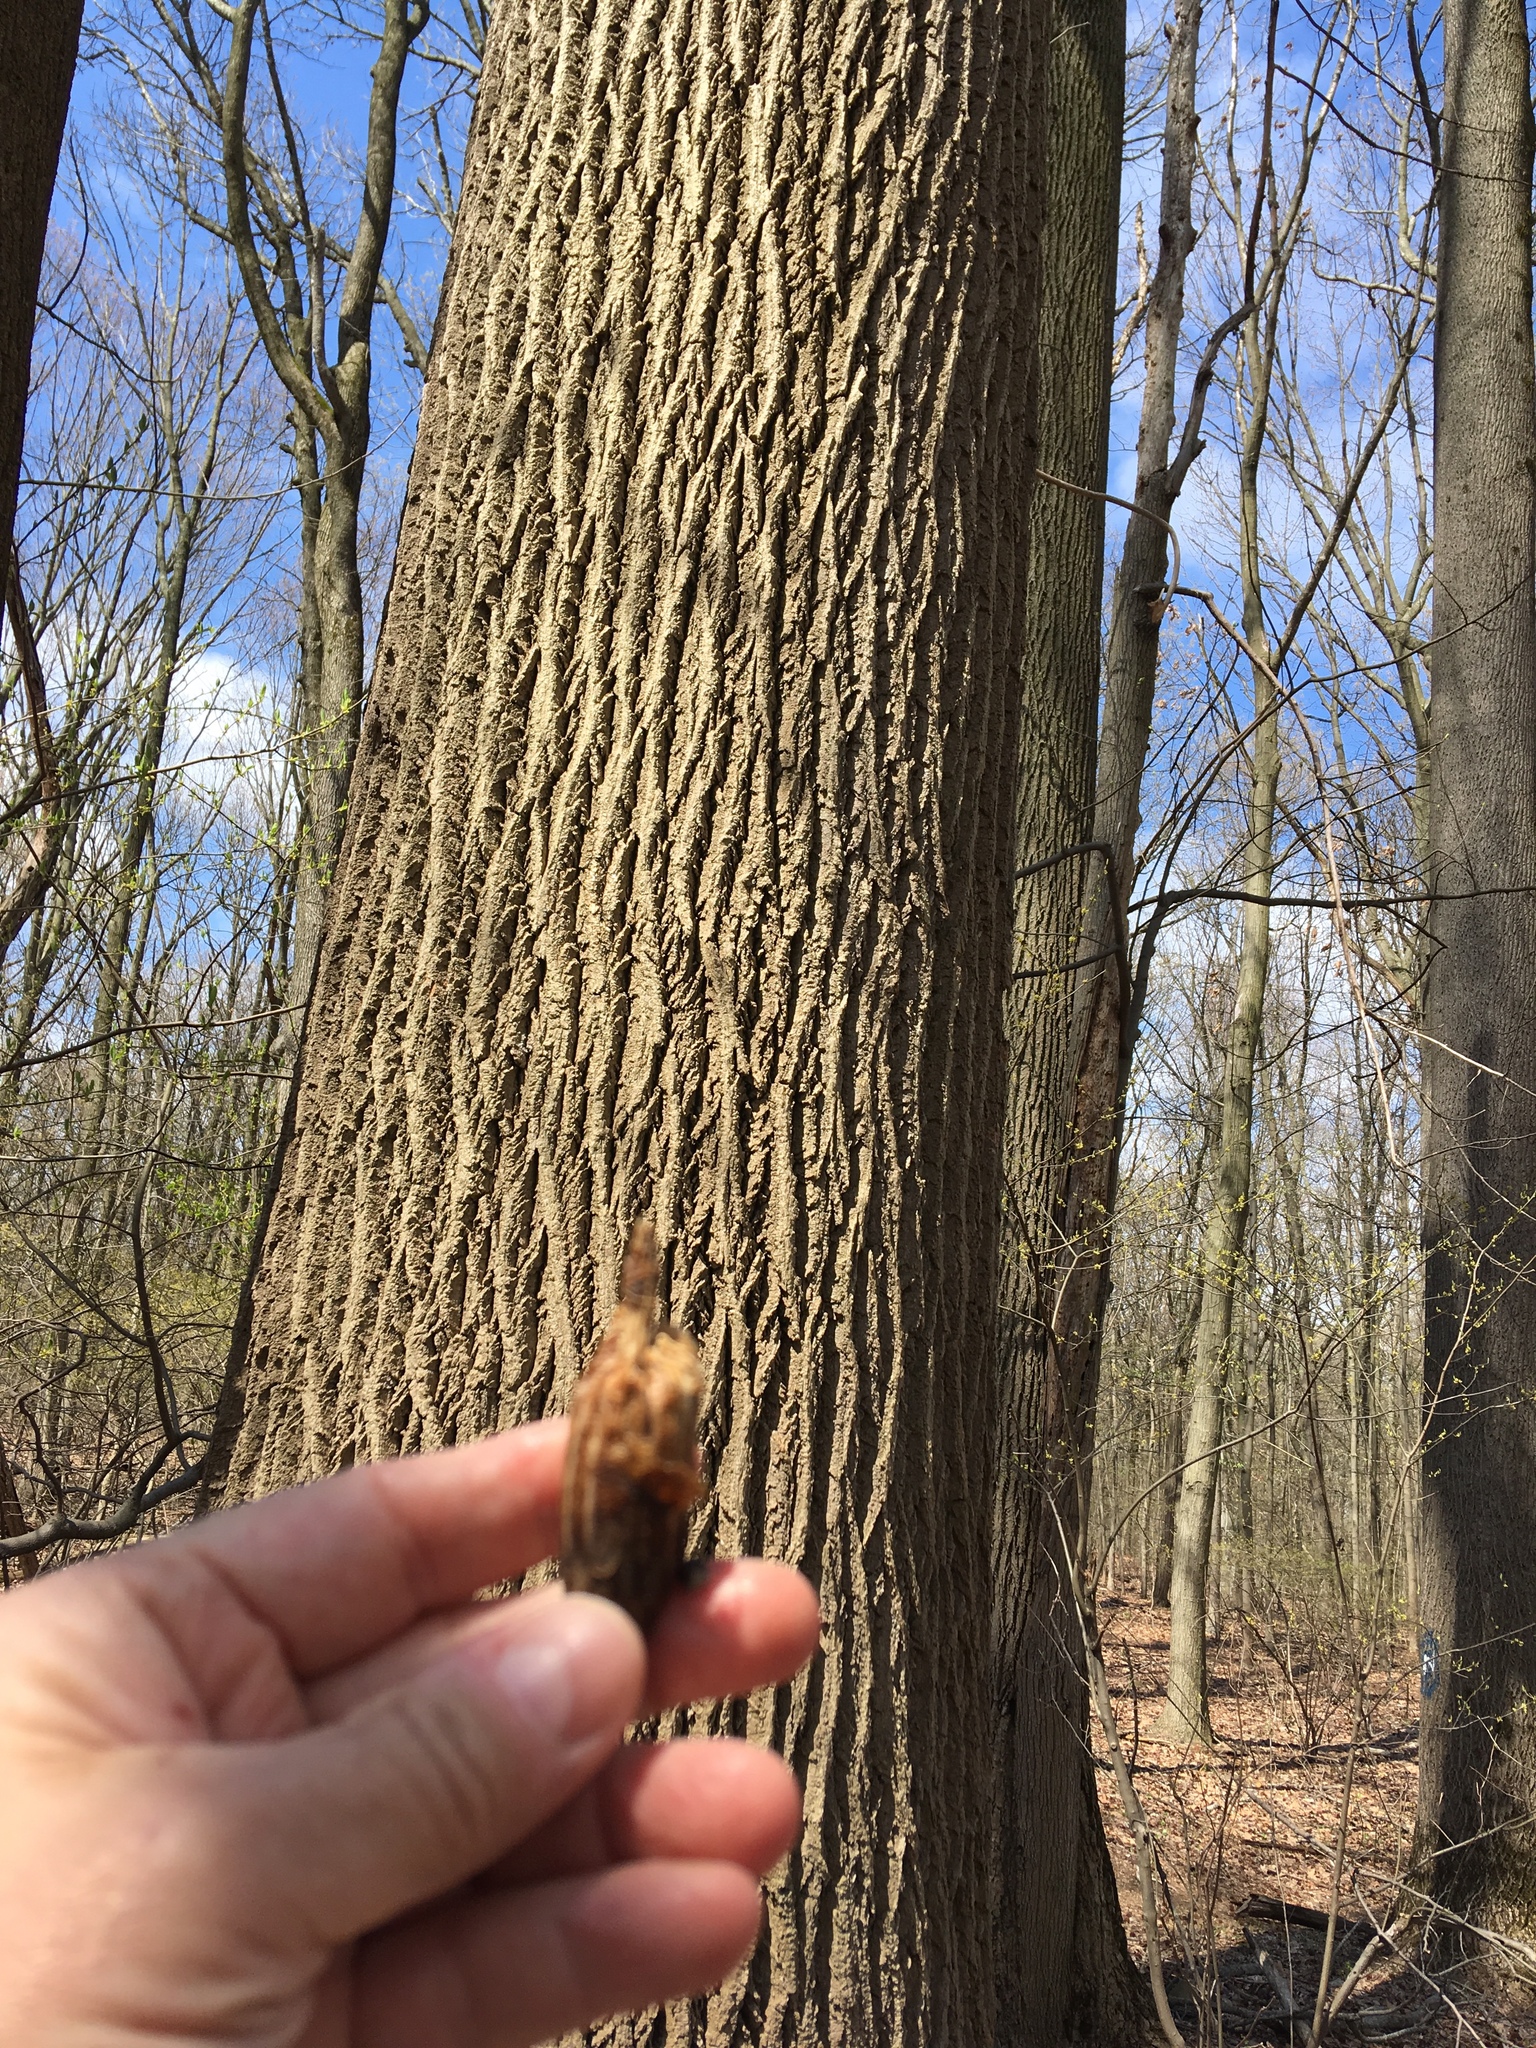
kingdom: Plantae
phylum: Tracheophyta
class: Magnoliopsida
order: Magnoliales
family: Magnoliaceae
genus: Liriodendron
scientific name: Liriodendron tulipifera
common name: Tulip tree
